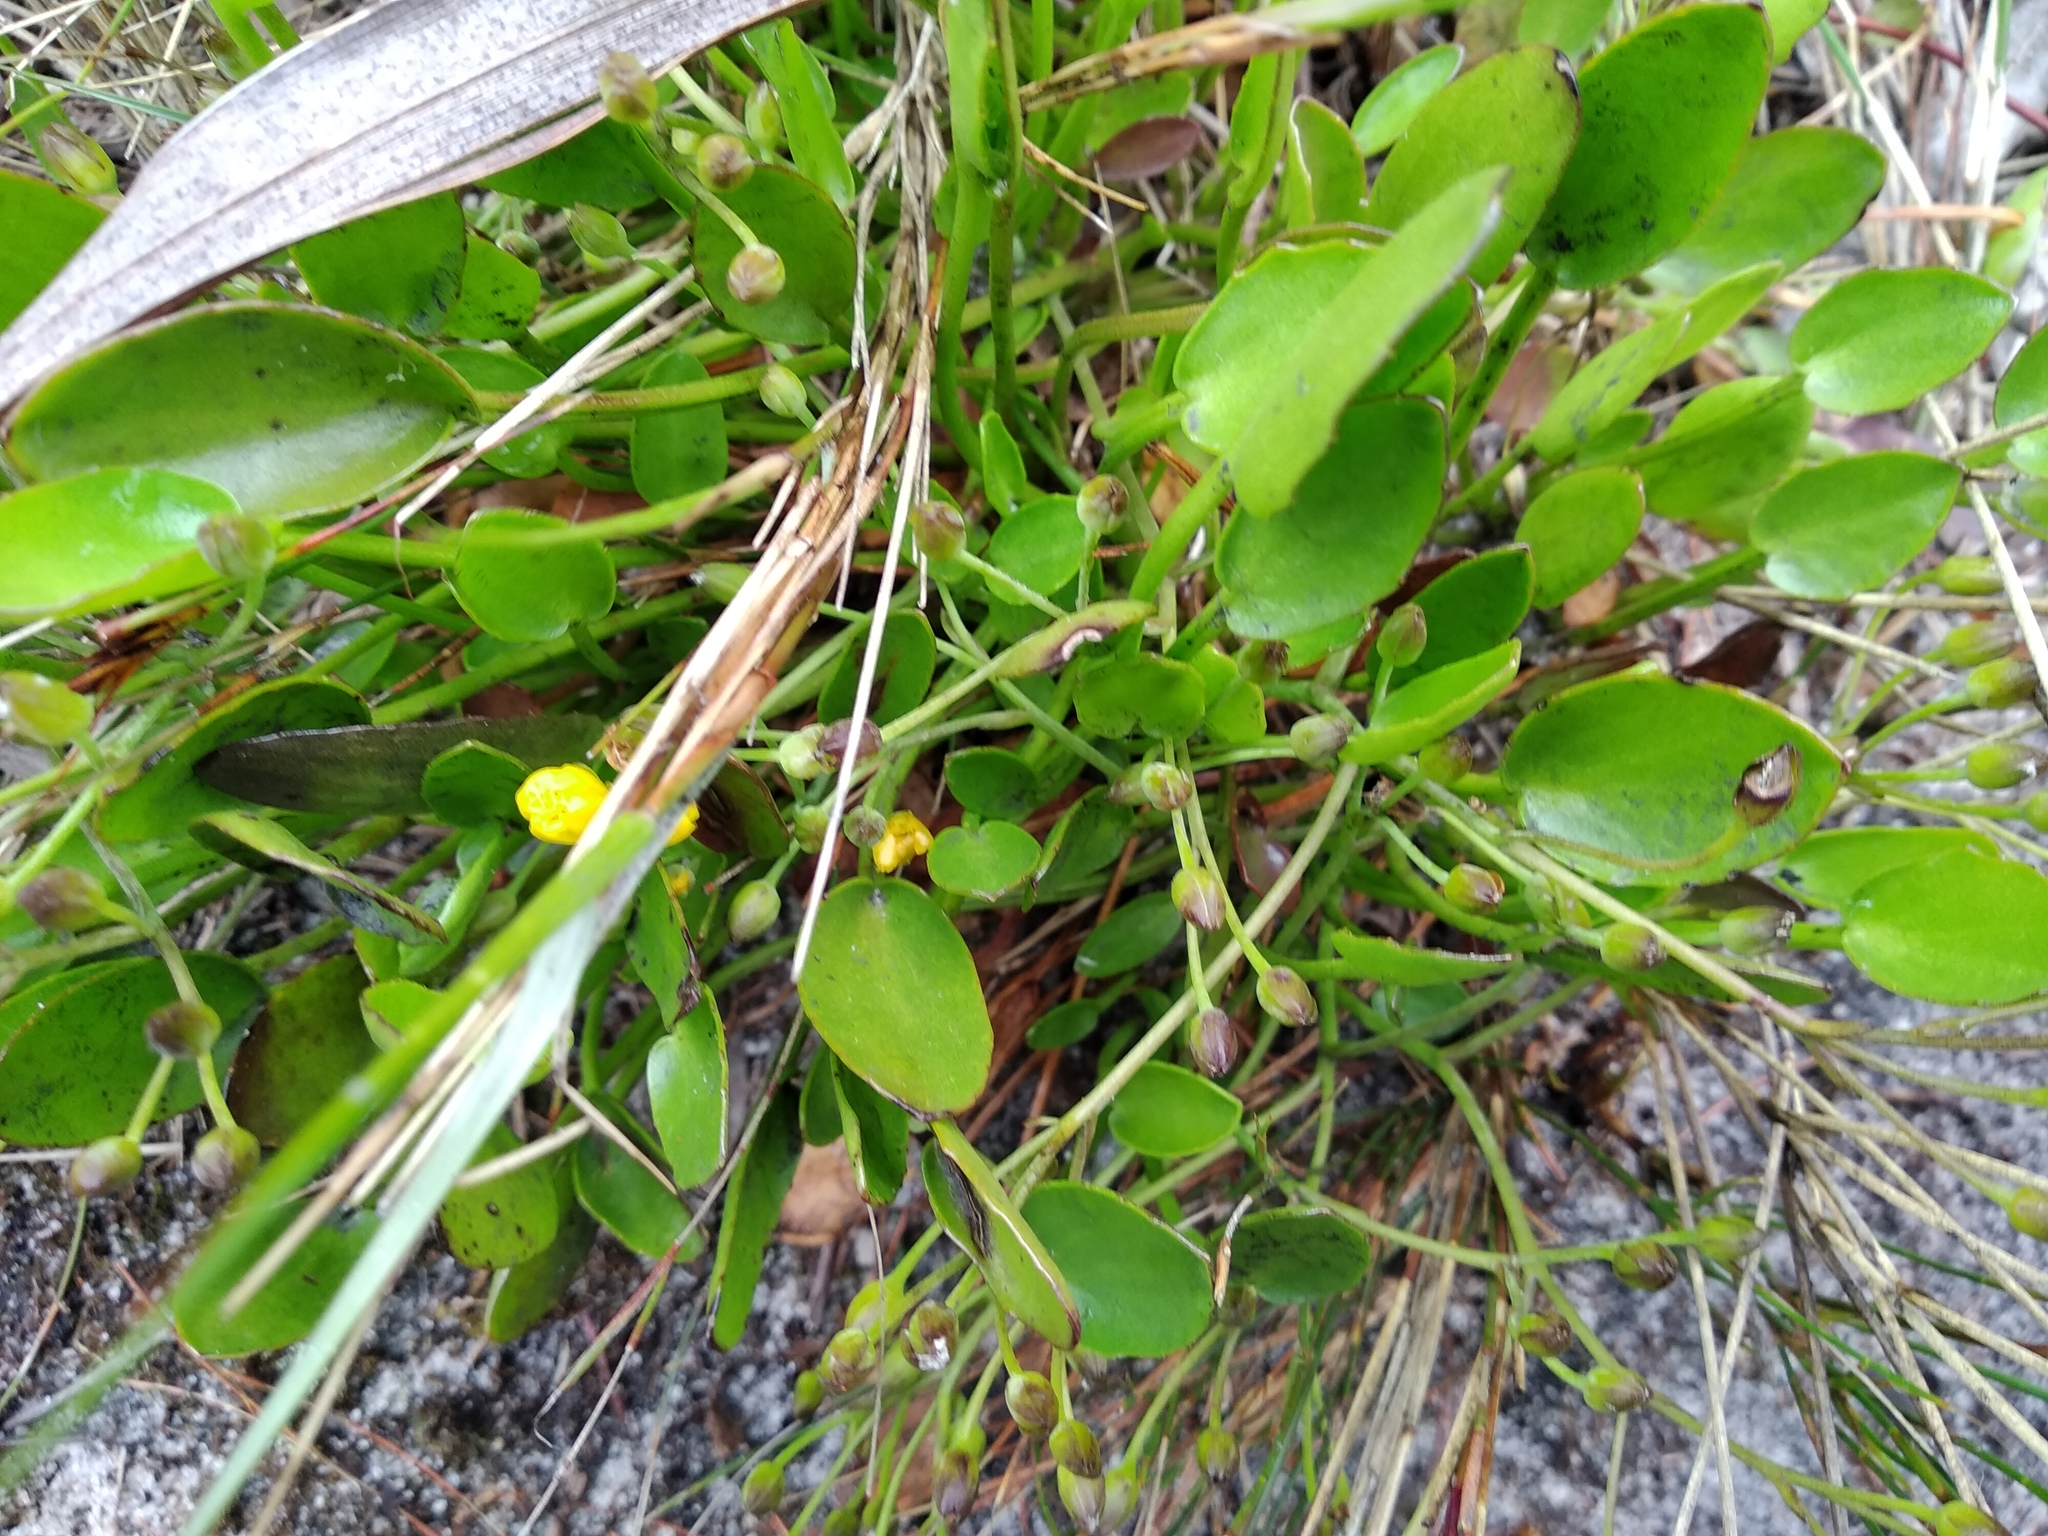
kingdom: Plantae
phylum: Tracheophyta
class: Magnoliopsida
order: Asterales
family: Menyanthaceae
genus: Villarsia
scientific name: Villarsia manningiana
